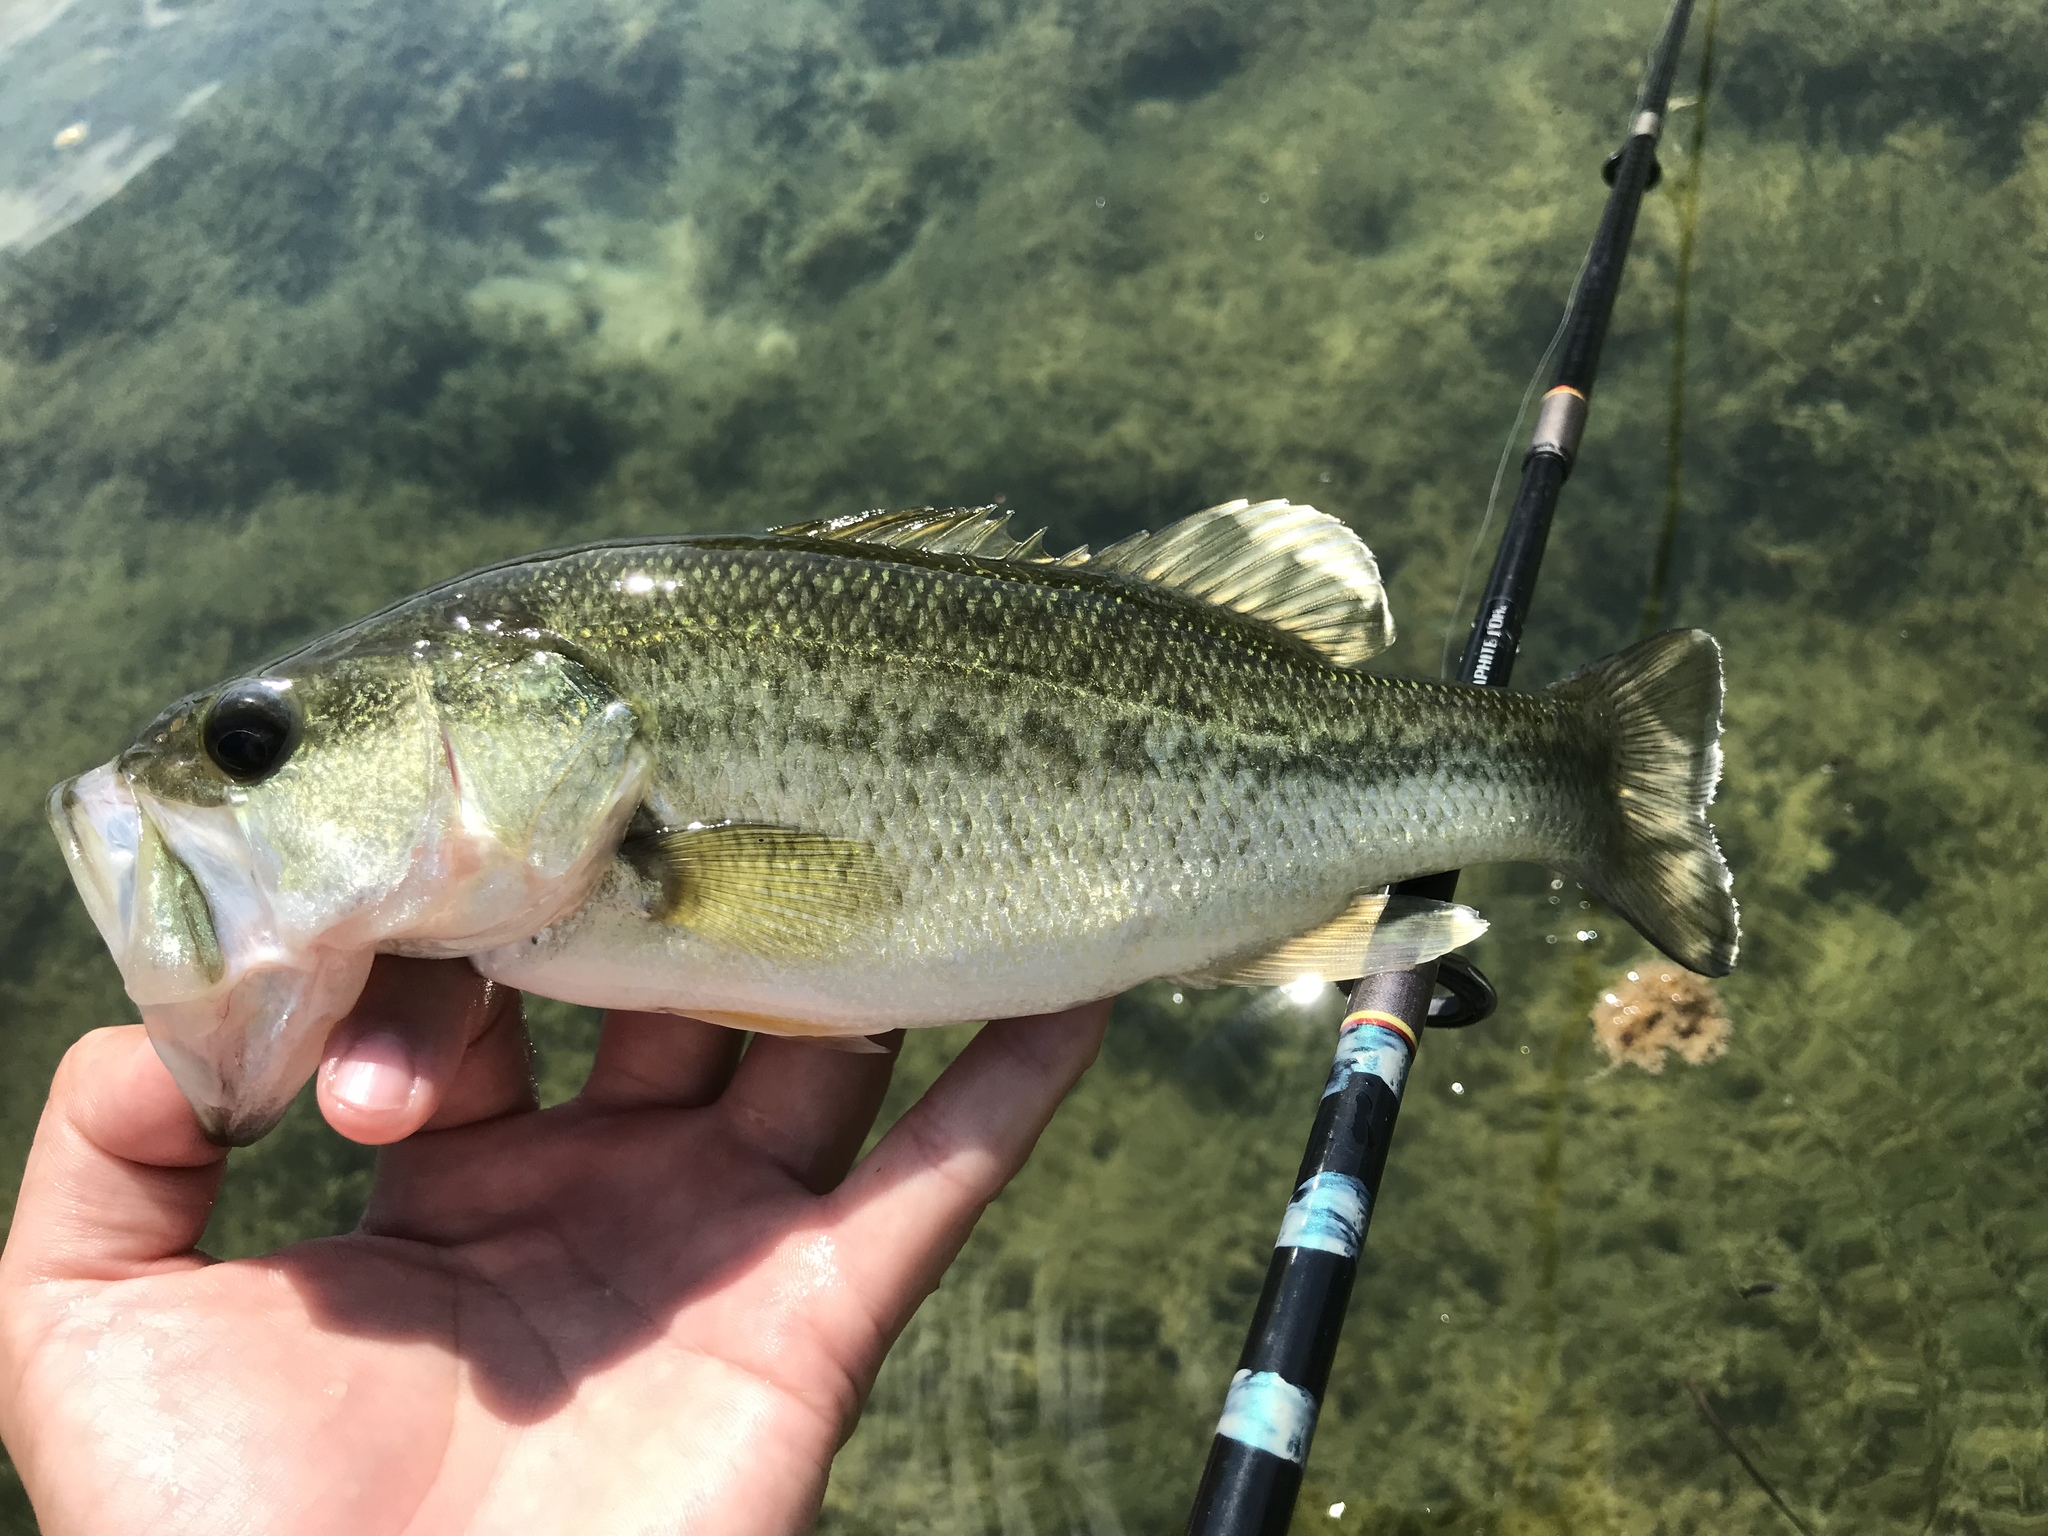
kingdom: Animalia
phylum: Chordata
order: Perciformes
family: Centrarchidae
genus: Micropterus
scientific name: Micropterus
